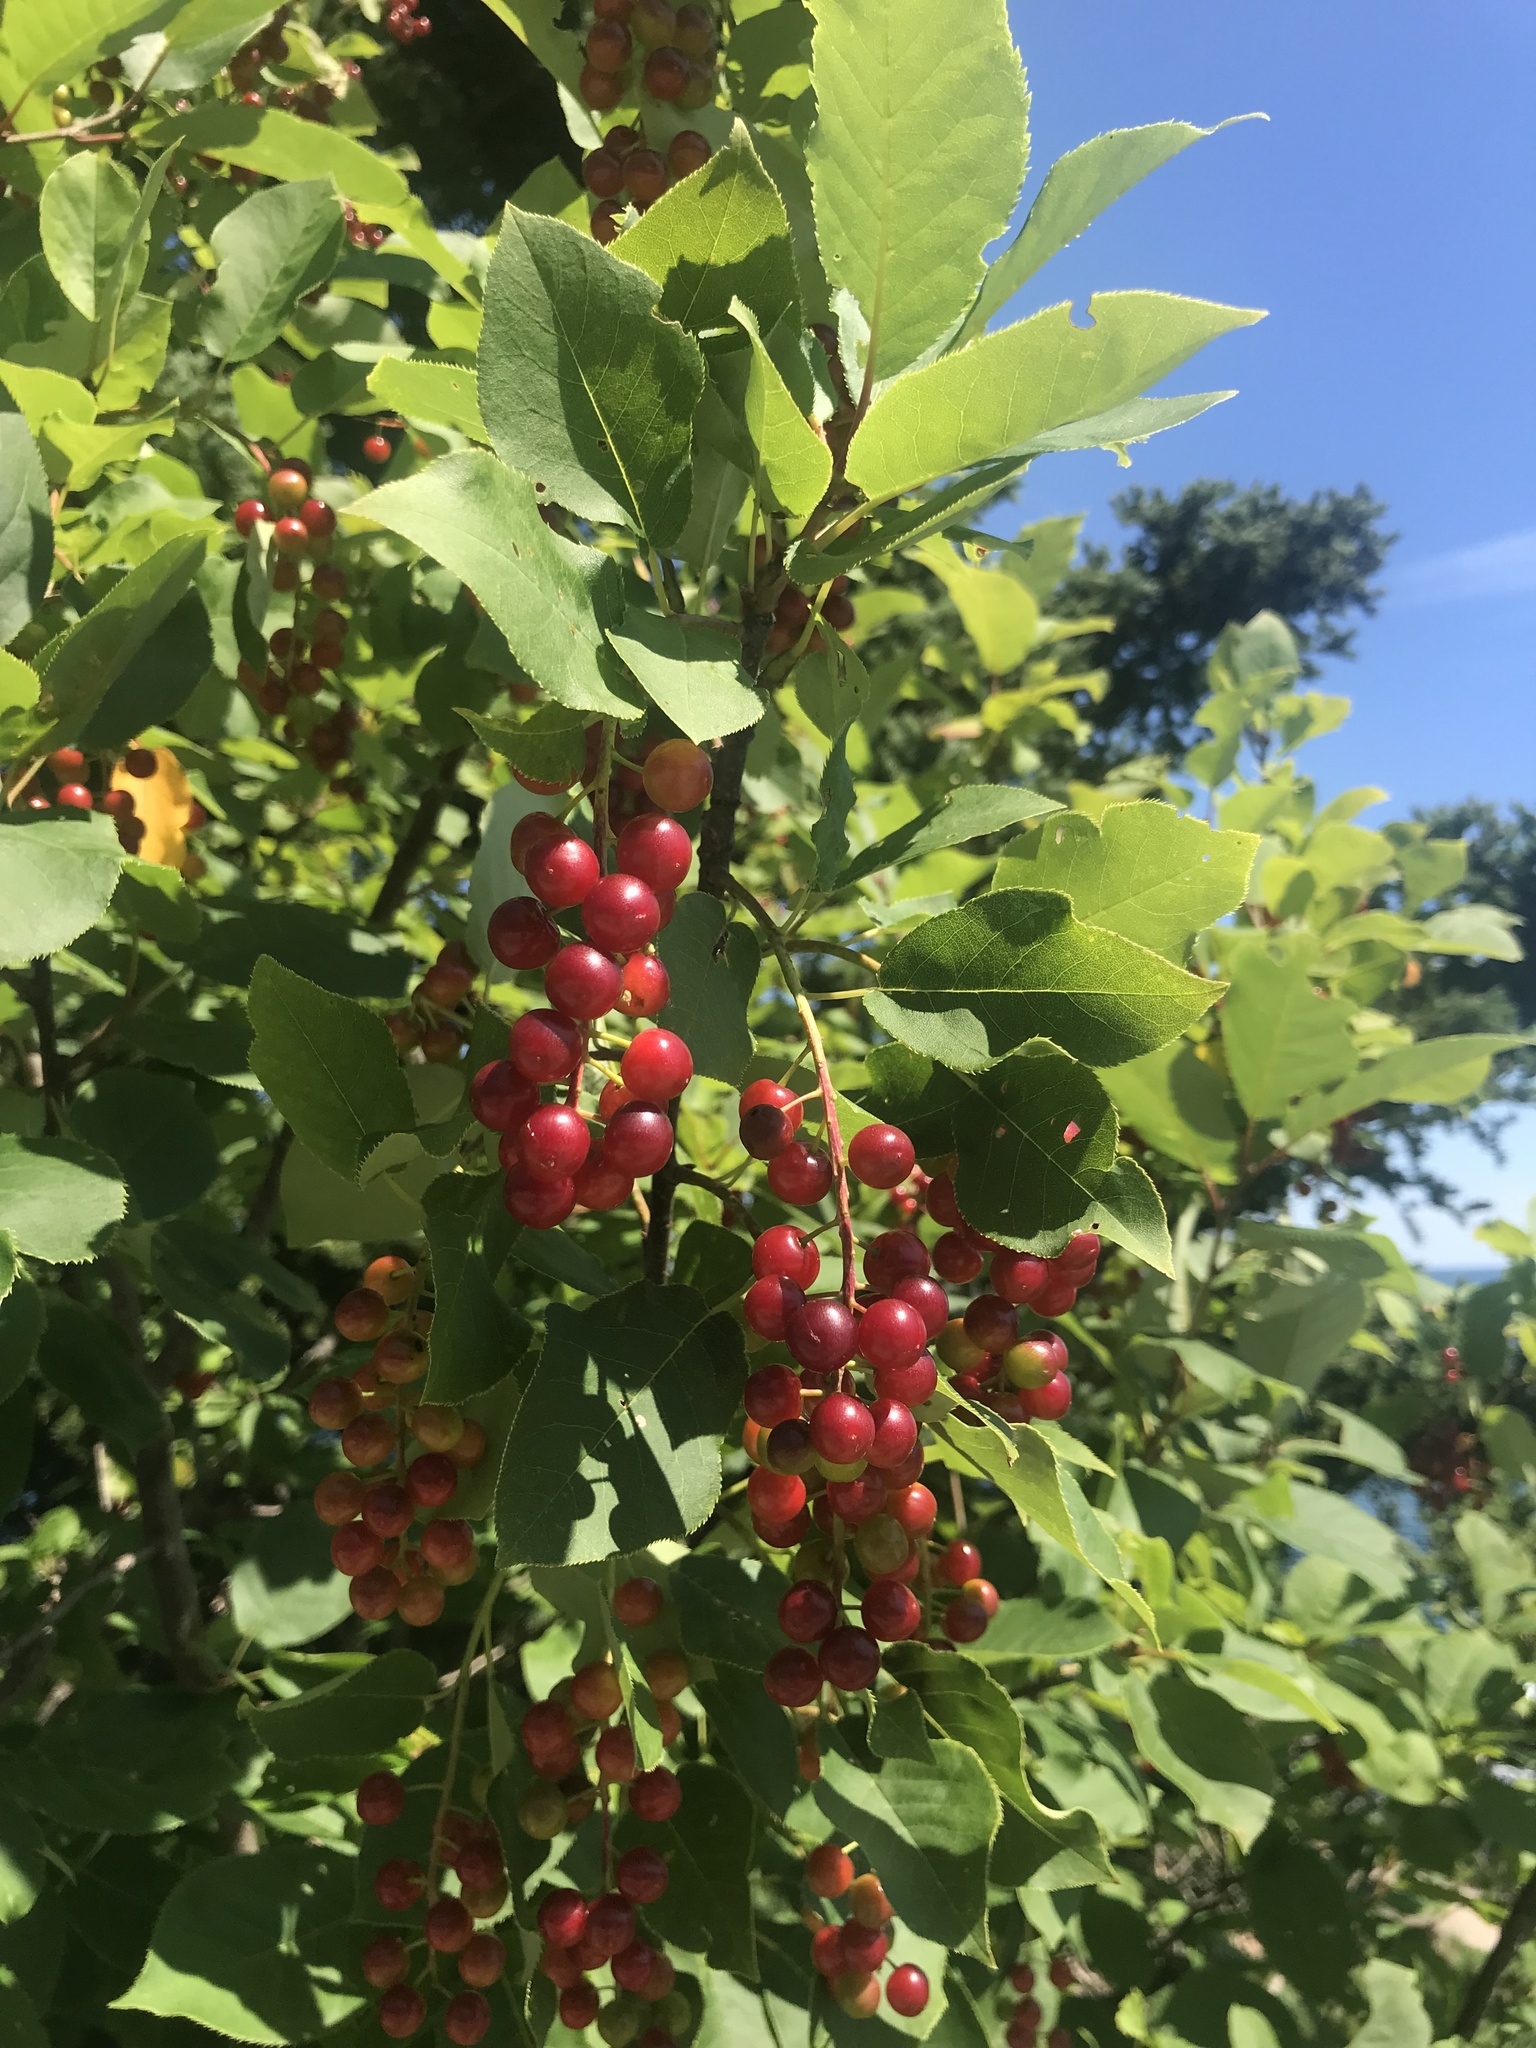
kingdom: Plantae
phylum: Tracheophyta
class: Magnoliopsida
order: Rosales
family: Rosaceae
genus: Prunus
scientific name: Prunus virginiana
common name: Chokecherry
